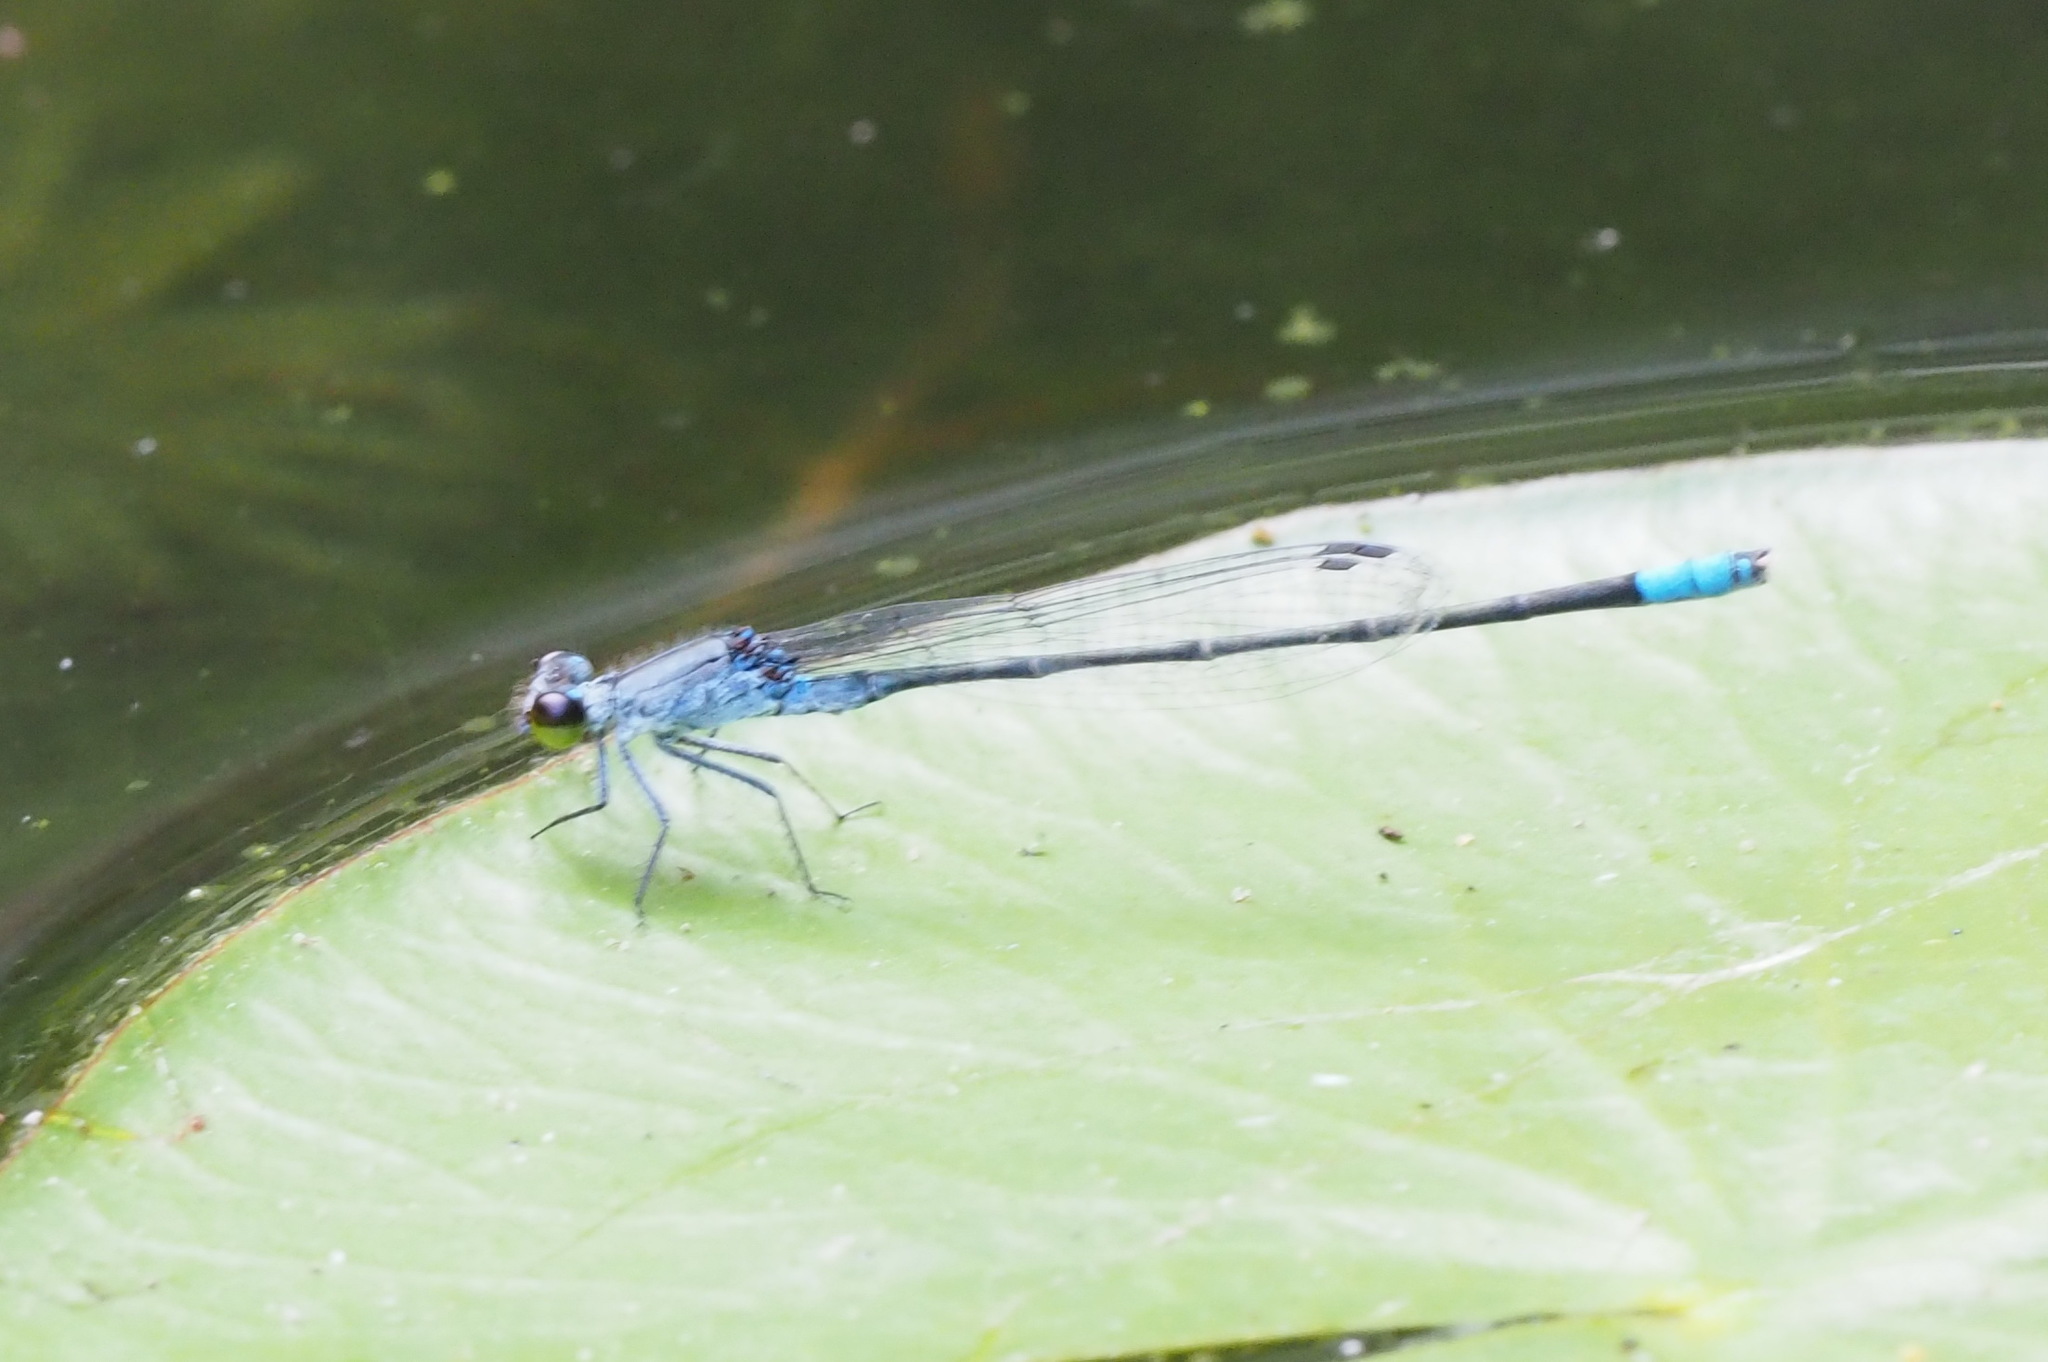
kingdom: Animalia
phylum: Arthropoda
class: Insecta
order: Odonata
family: Coenagrionidae
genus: Paracercion
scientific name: Paracercion calamorum
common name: Dusky lilysquatter
